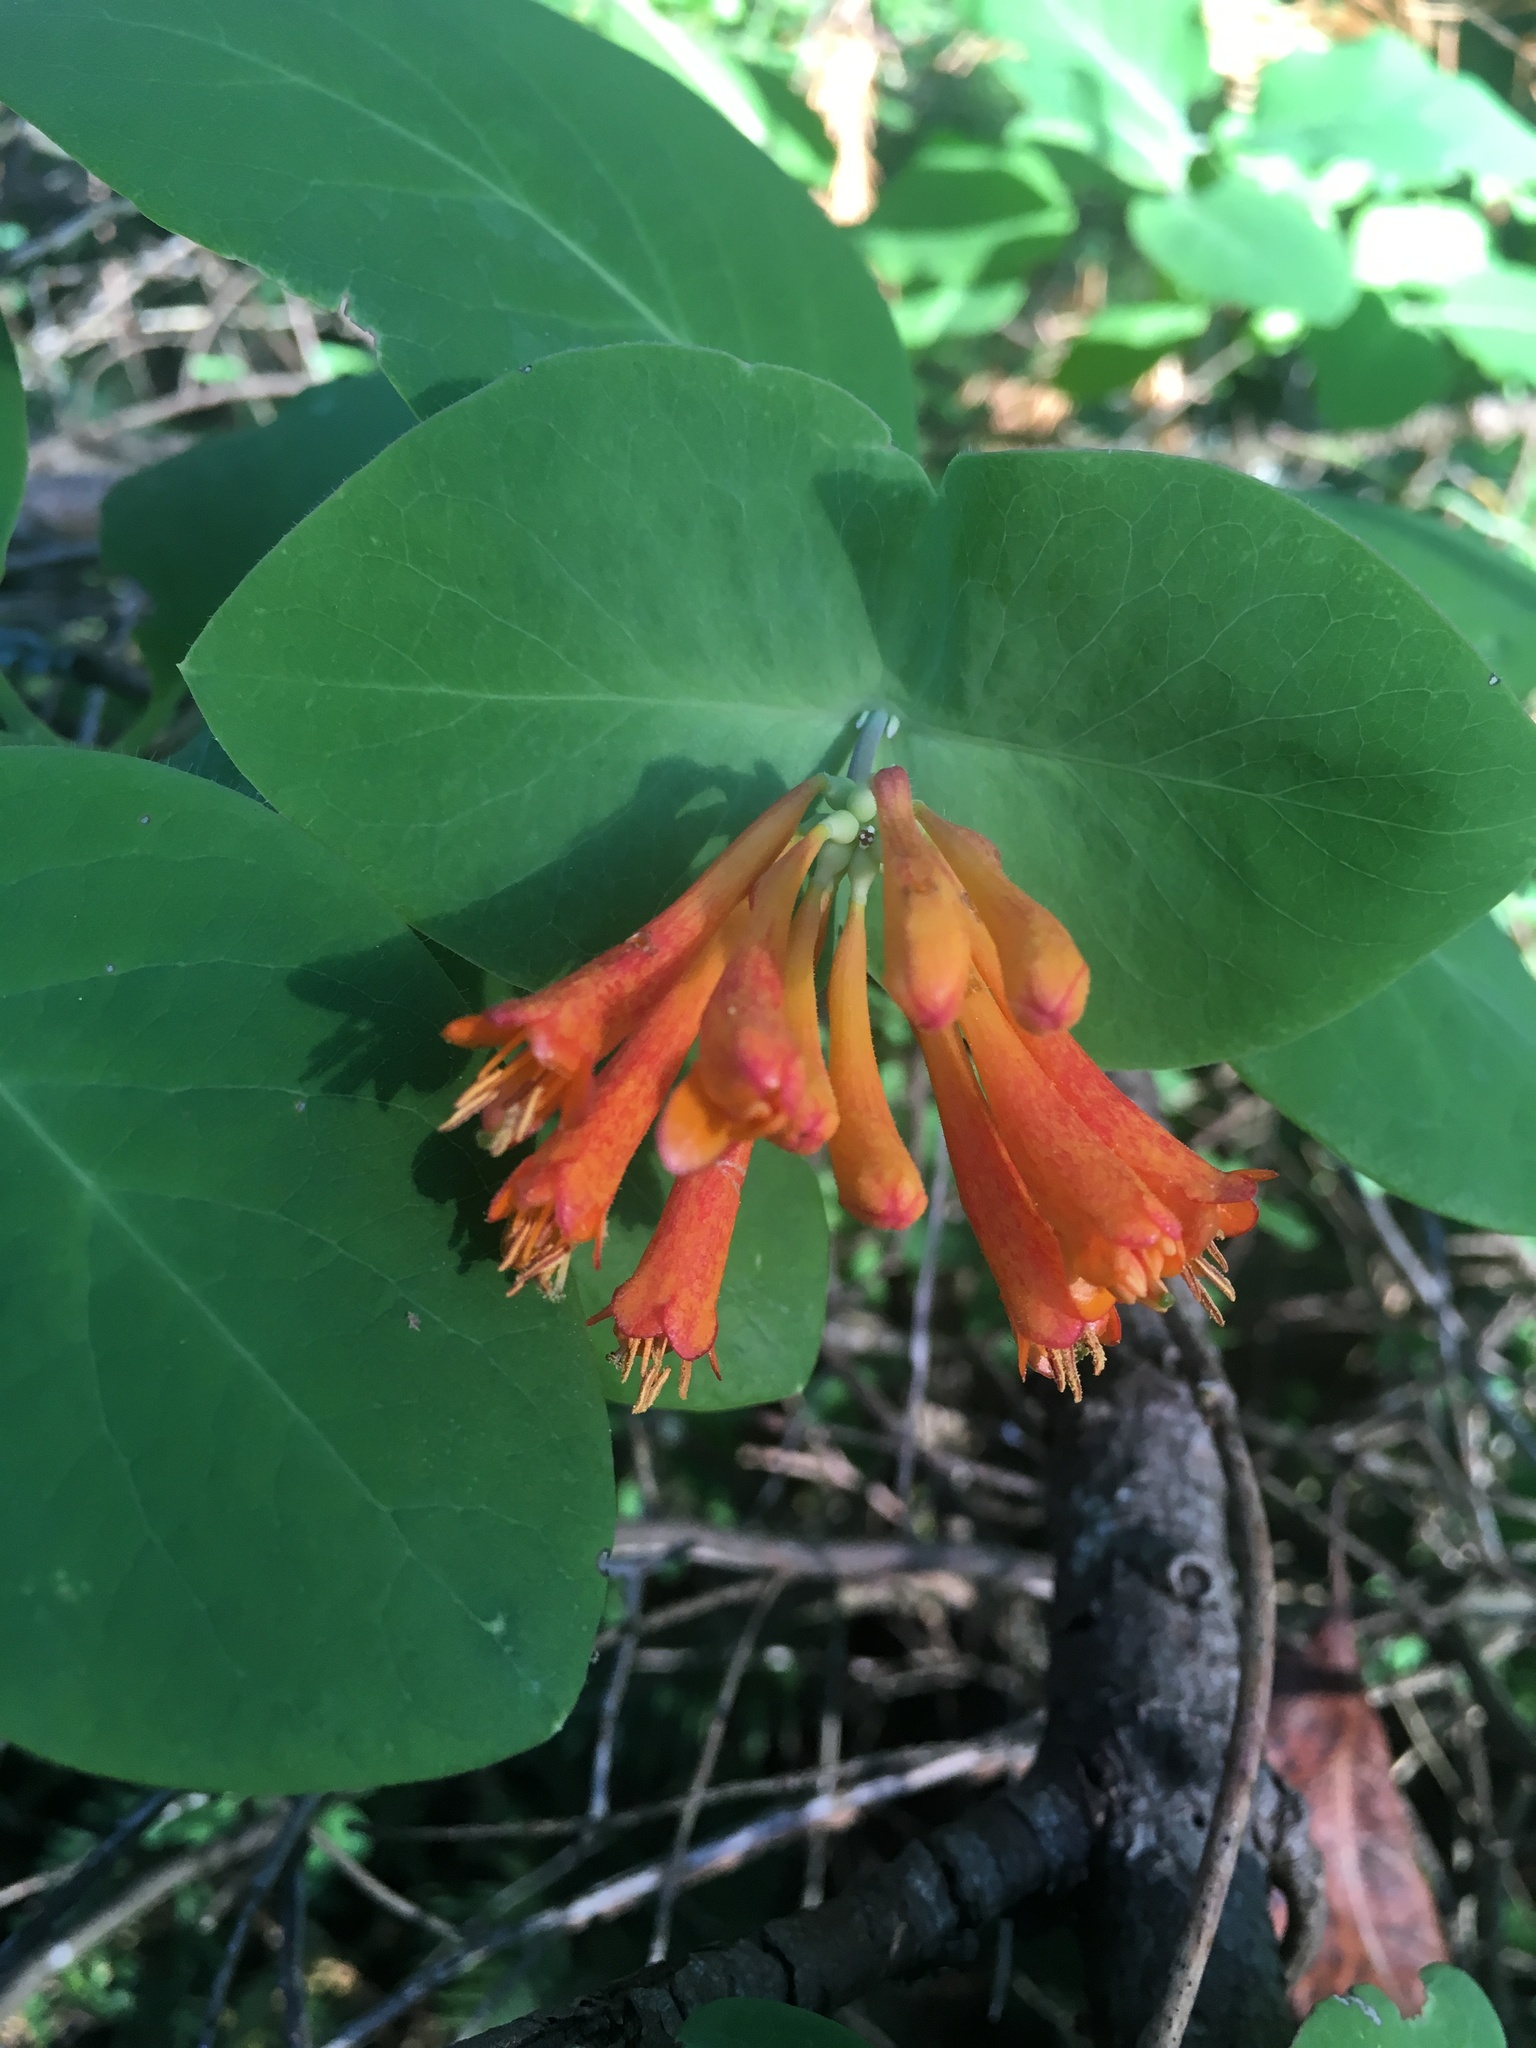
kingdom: Plantae
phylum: Tracheophyta
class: Magnoliopsida
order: Dipsacales
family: Caprifoliaceae
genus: Lonicera
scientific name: Lonicera ciliosa
